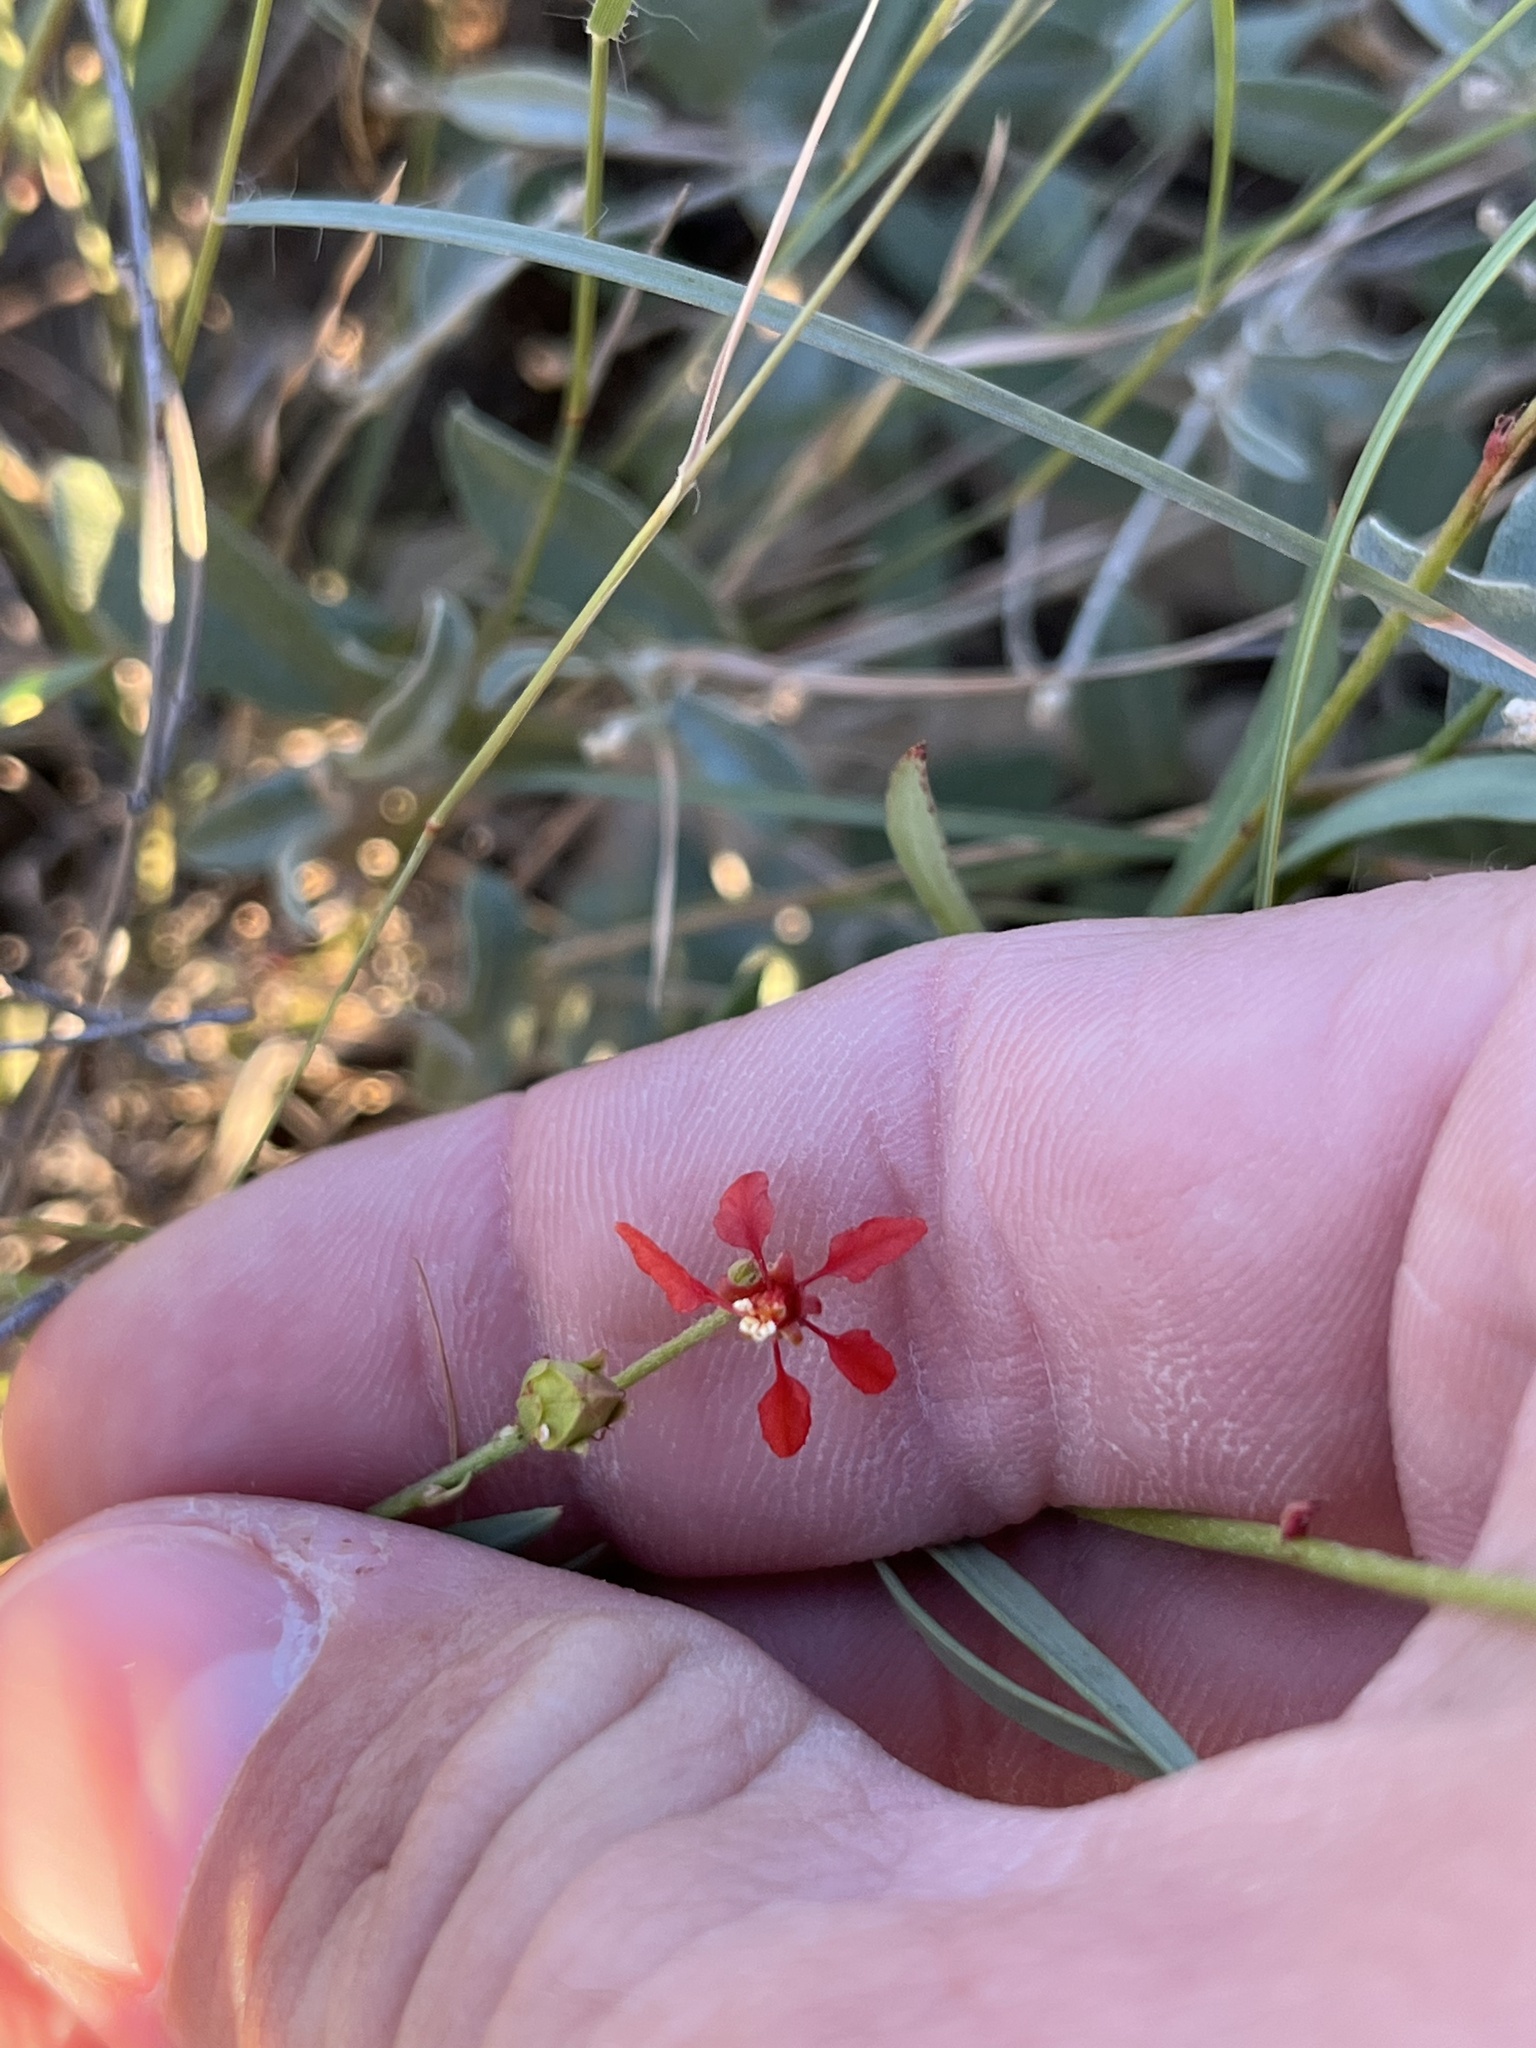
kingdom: Plantae
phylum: Tracheophyta
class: Magnoliopsida
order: Malpighiales
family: Malpighiaceae
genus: Galphimia
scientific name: Galphimia angustifolia
